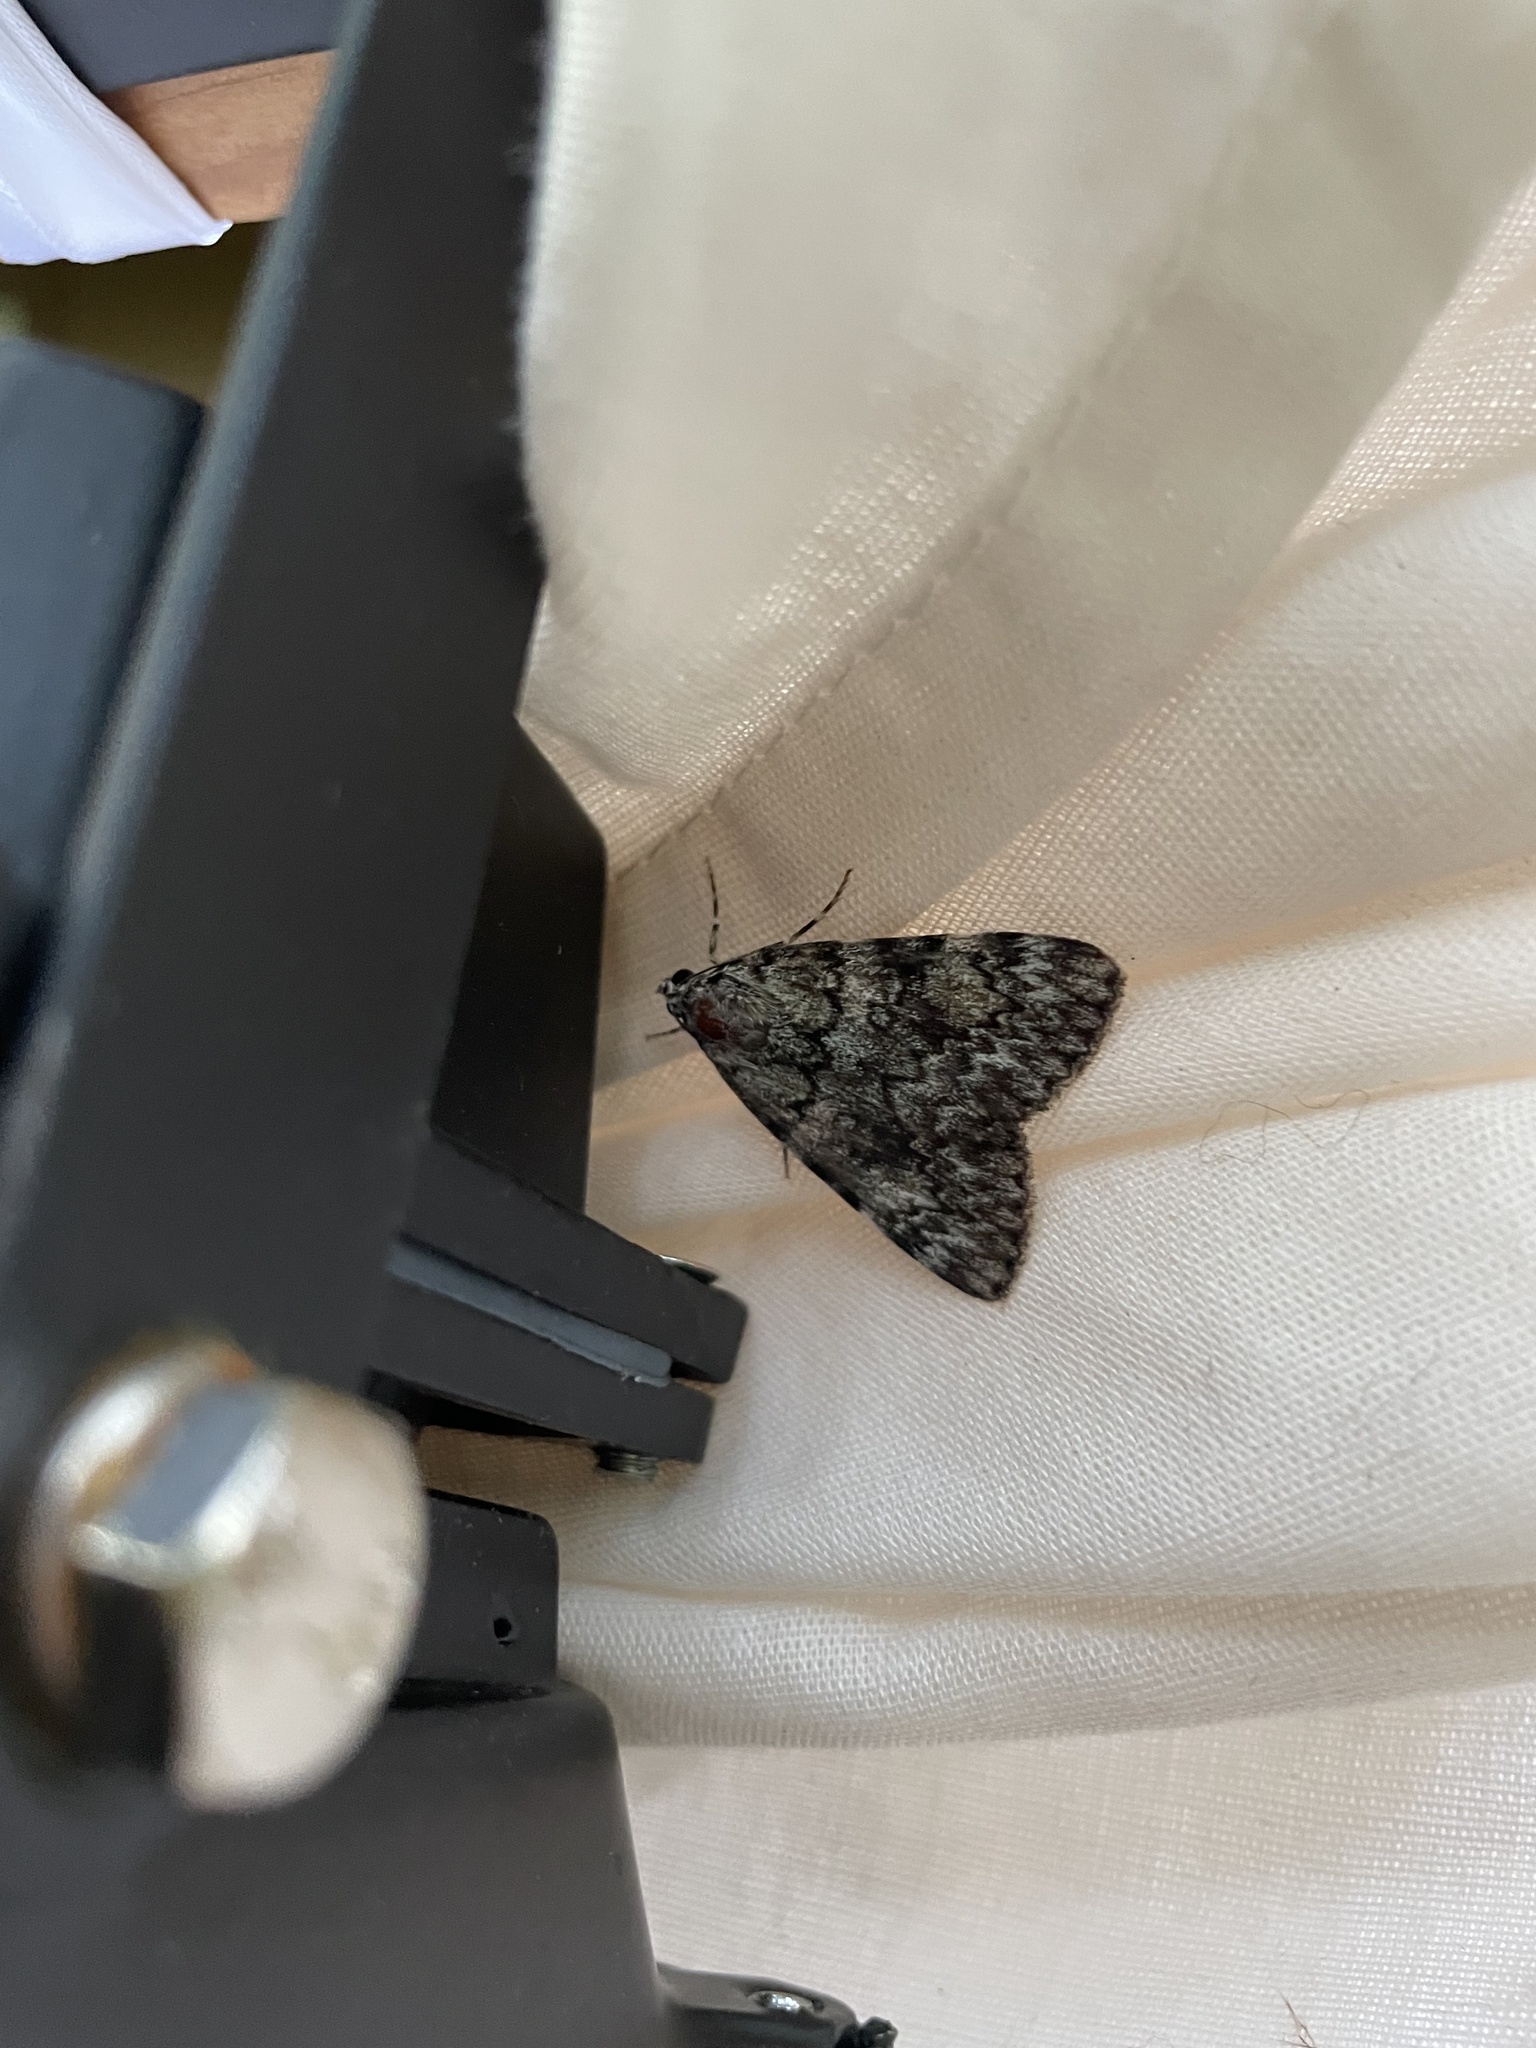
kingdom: Animalia
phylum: Arthropoda
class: Insecta
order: Lepidoptera
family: Erebidae
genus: Catocala
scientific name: Catocala lineella
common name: Little lined underwing
